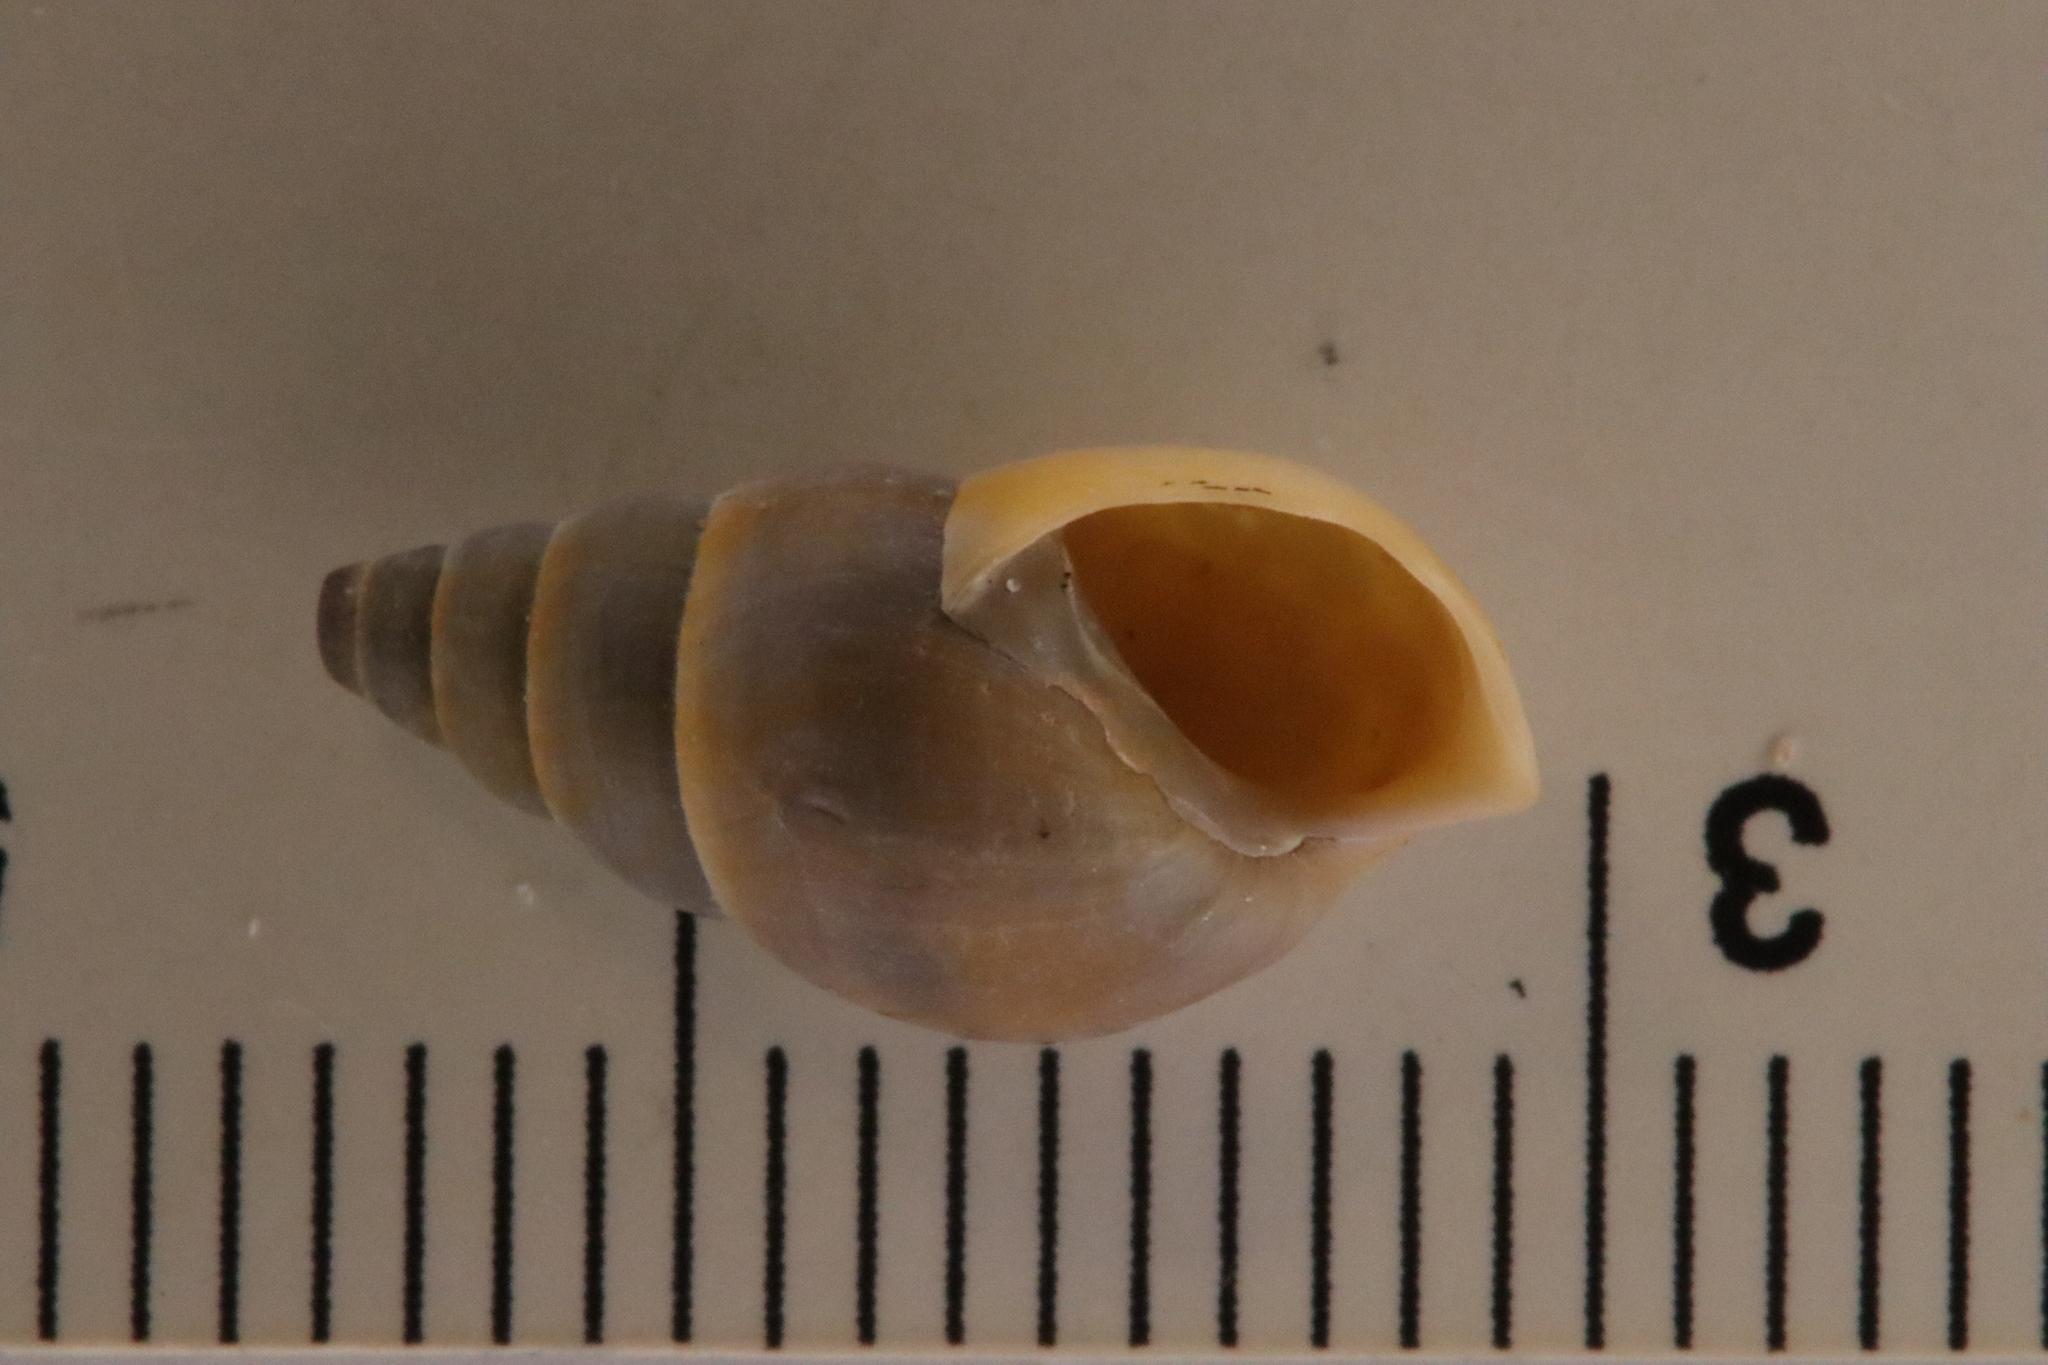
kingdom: Animalia
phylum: Mollusca
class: Gastropoda
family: Pleuroceridae
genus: Elimia
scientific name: Elimia livescens
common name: Liver elimia
